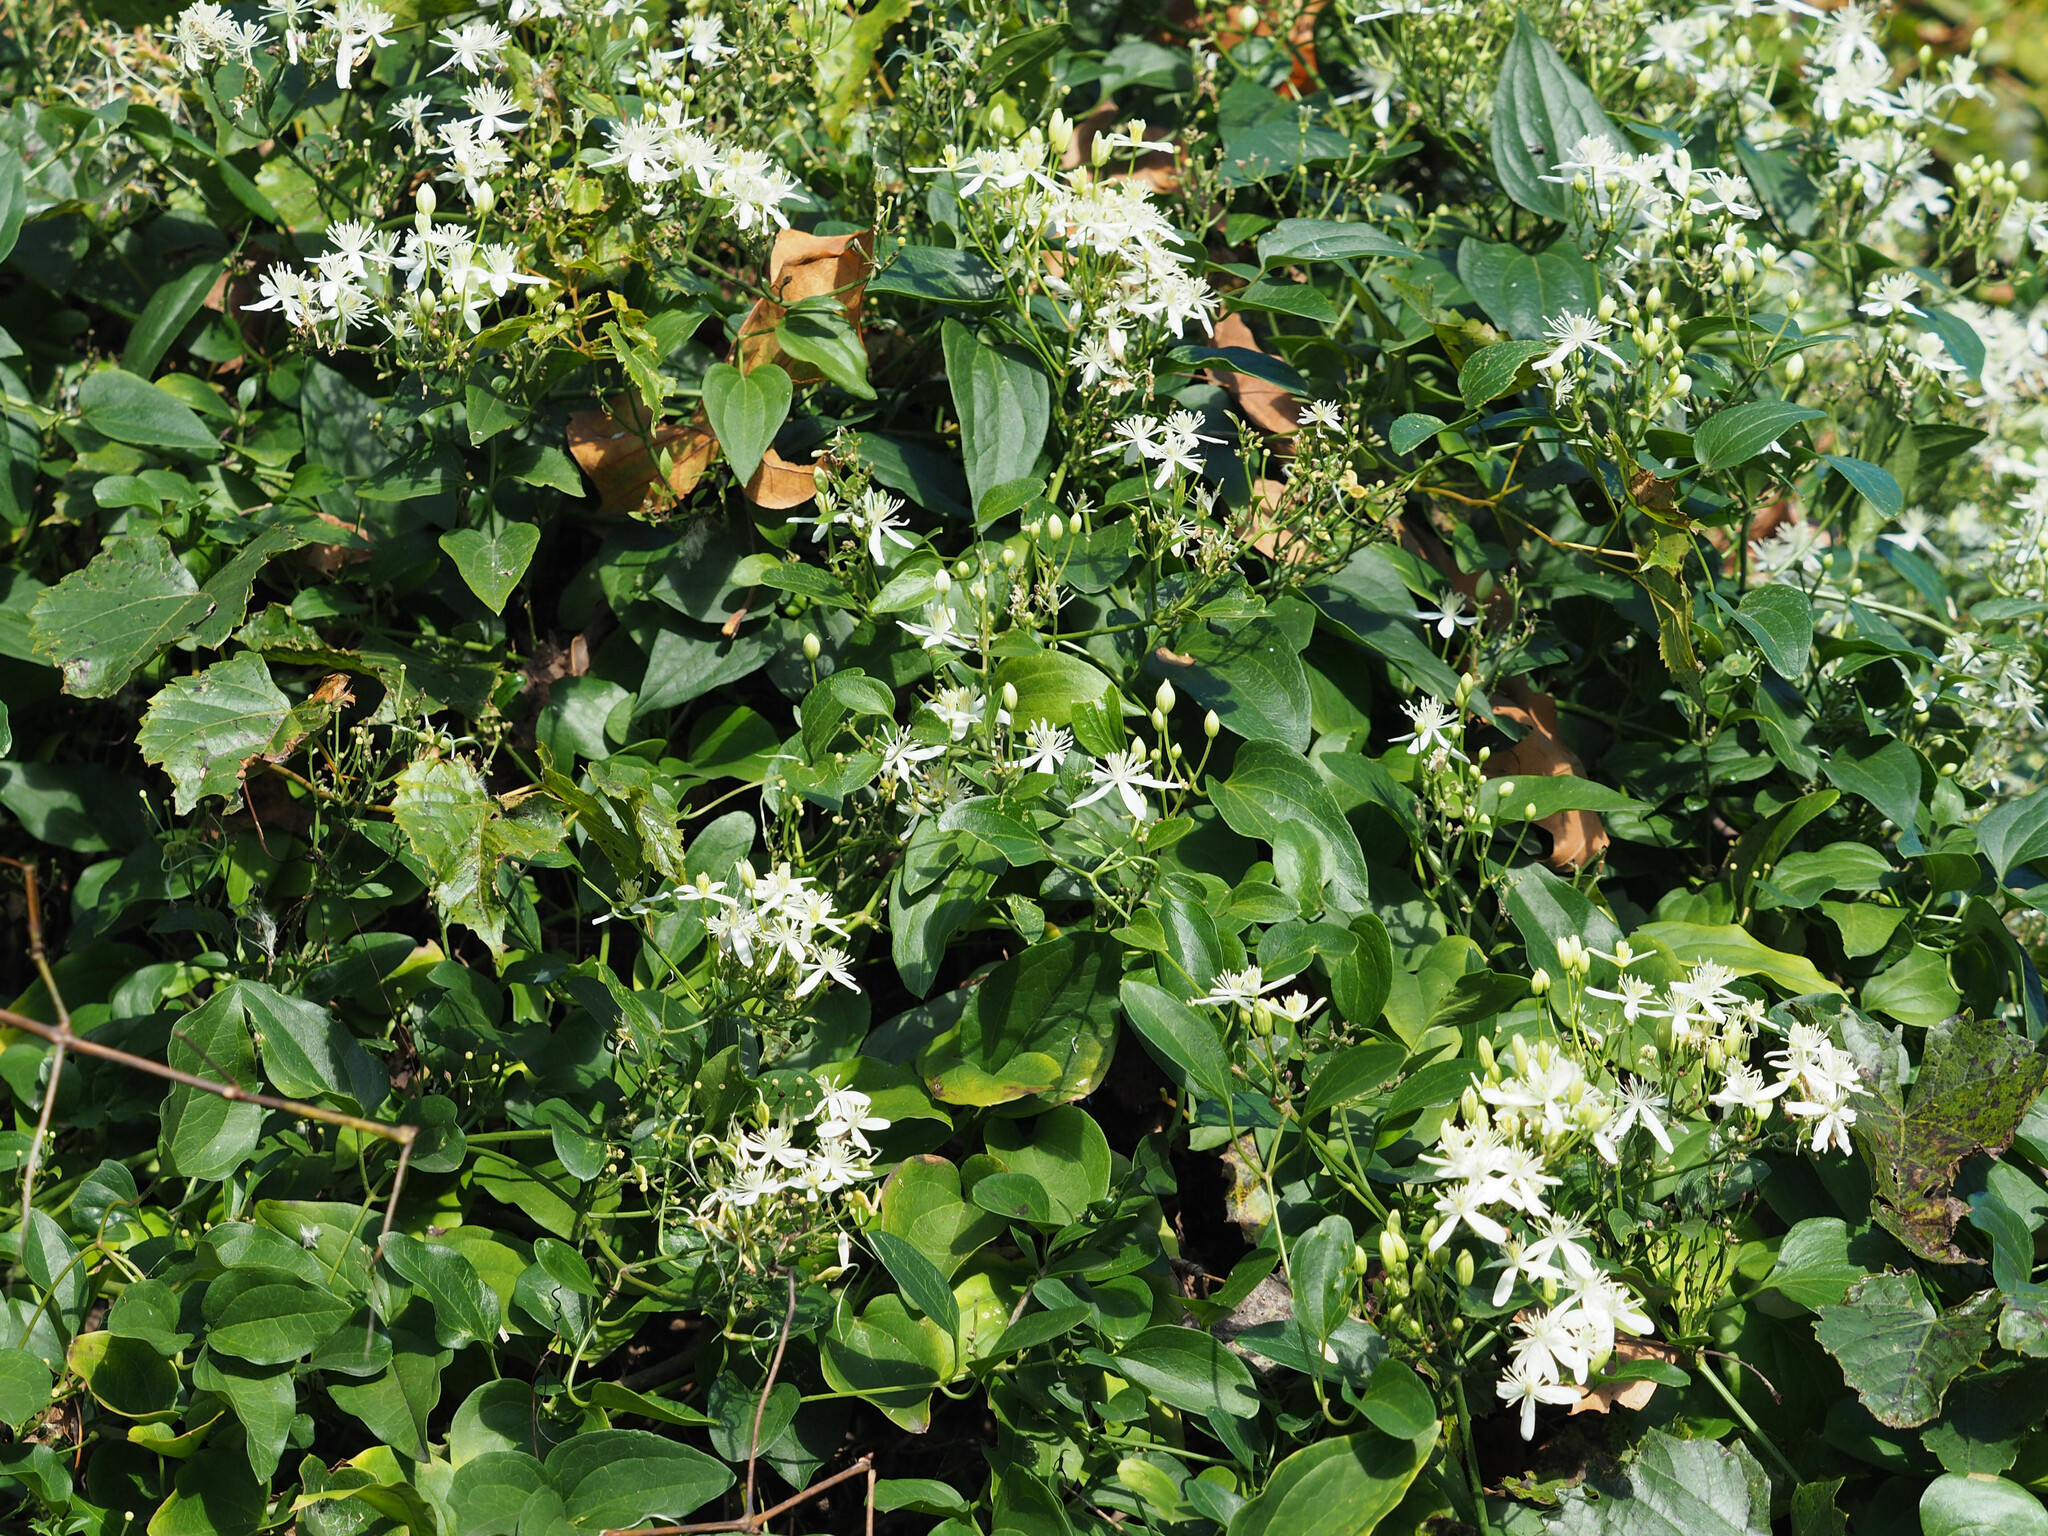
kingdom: Plantae
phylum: Tracheophyta
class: Magnoliopsida
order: Ranunculales
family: Ranunculaceae
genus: Clematis
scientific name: Clematis terniflora
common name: Sweet autumn clematis
